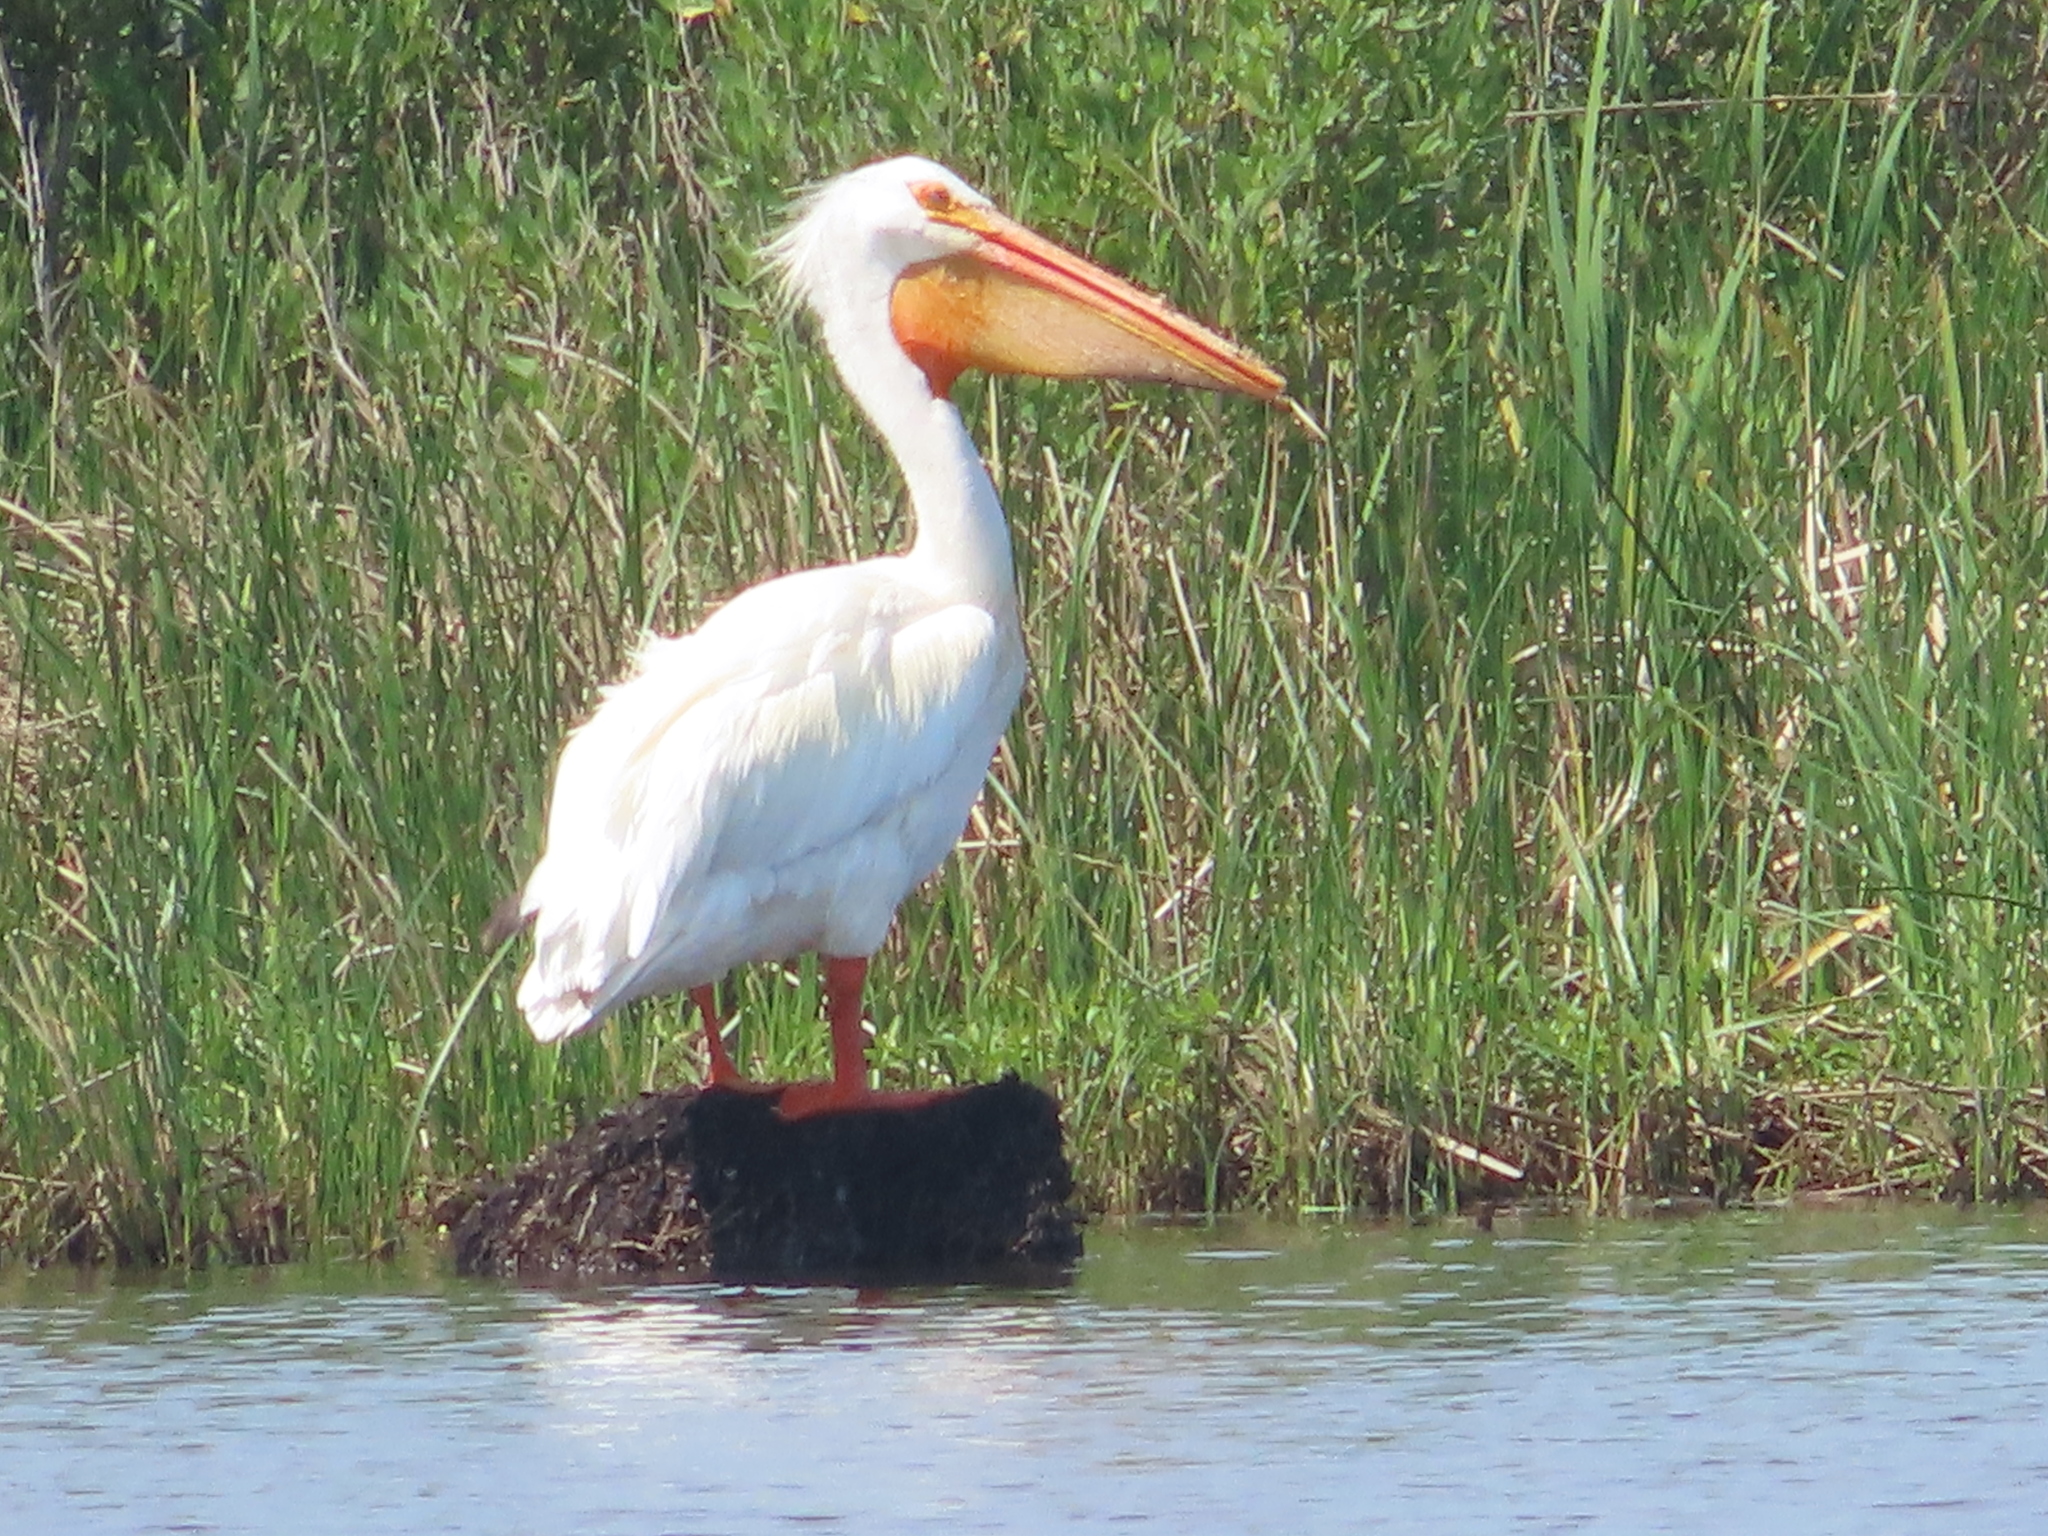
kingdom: Animalia
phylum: Chordata
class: Aves
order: Pelecaniformes
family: Pelecanidae
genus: Pelecanus
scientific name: Pelecanus erythrorhynchos
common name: American white pelican
